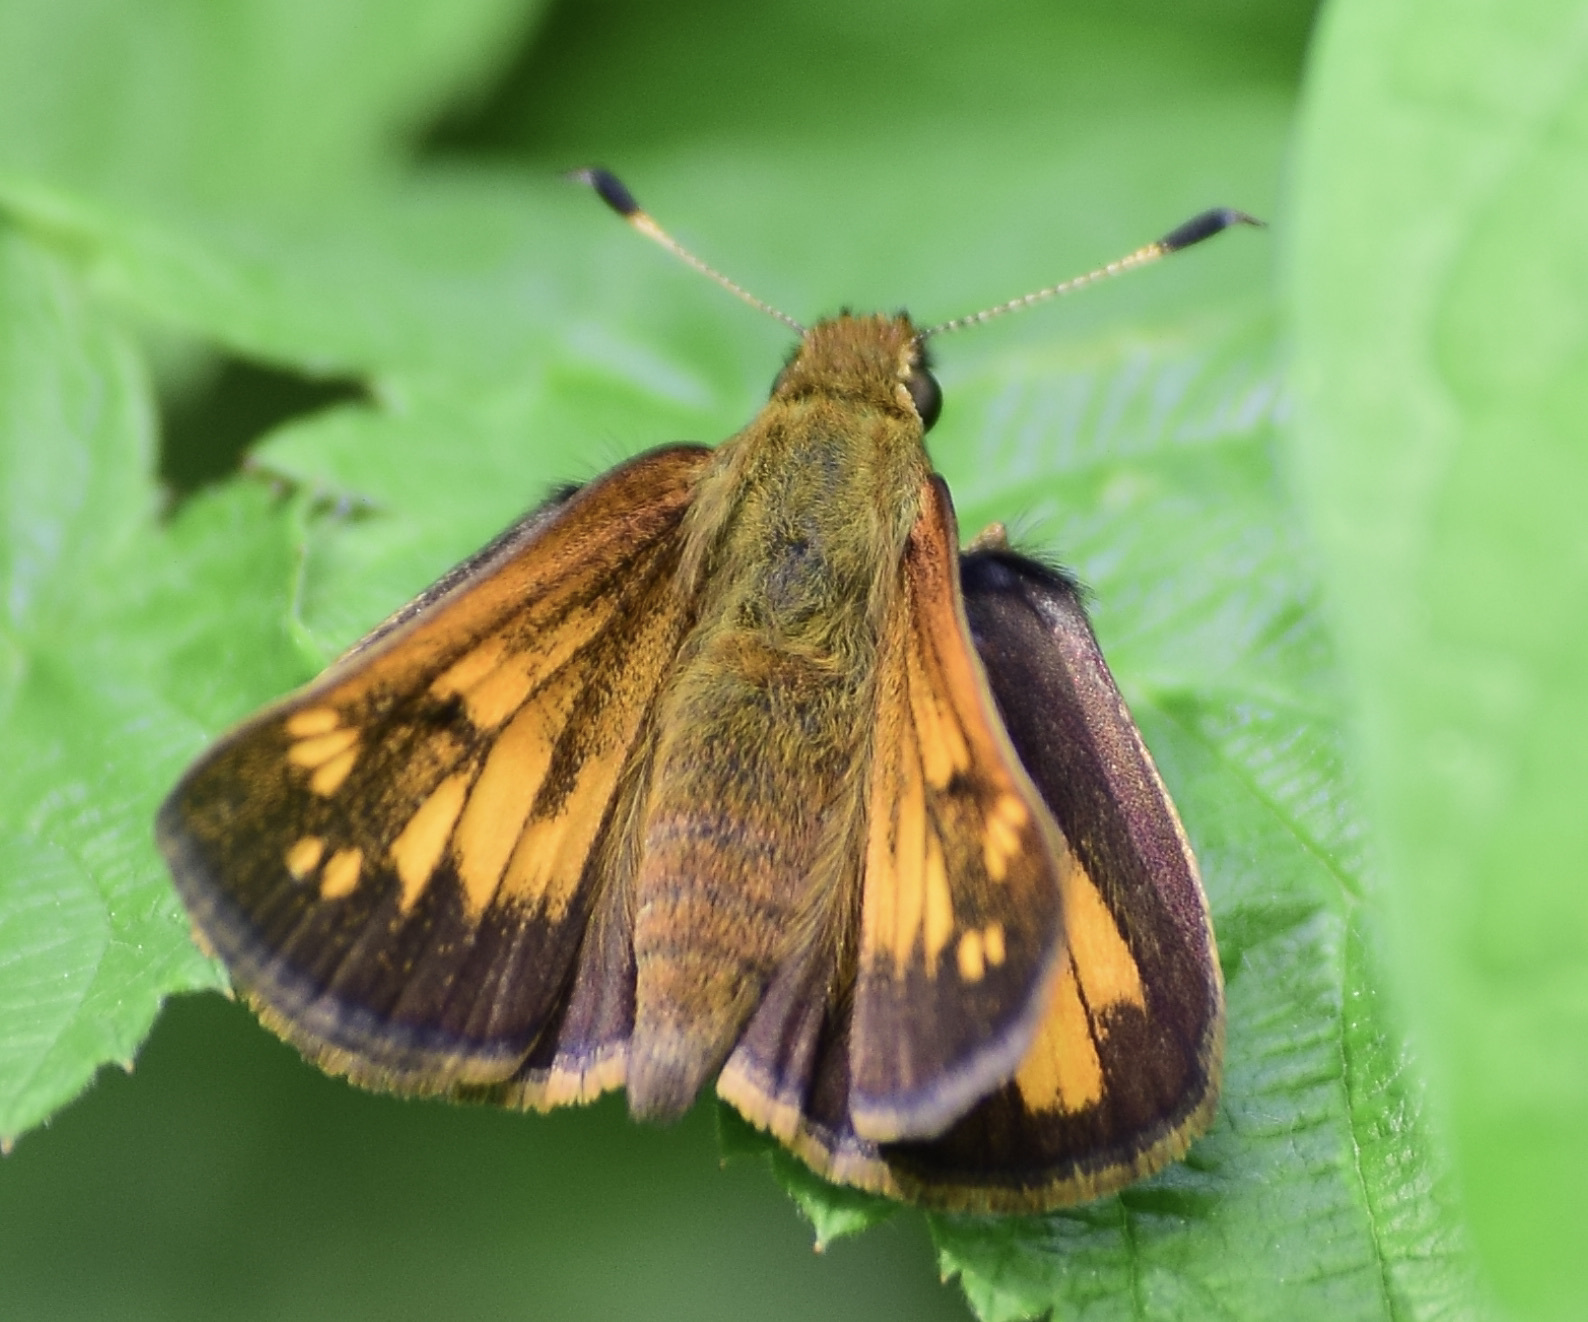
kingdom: Animalia
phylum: Arthropoda
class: Insecta
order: Lepidoptera
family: Hesperiidae
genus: Lon
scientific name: Lon hobomok
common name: Hobomok skipper
